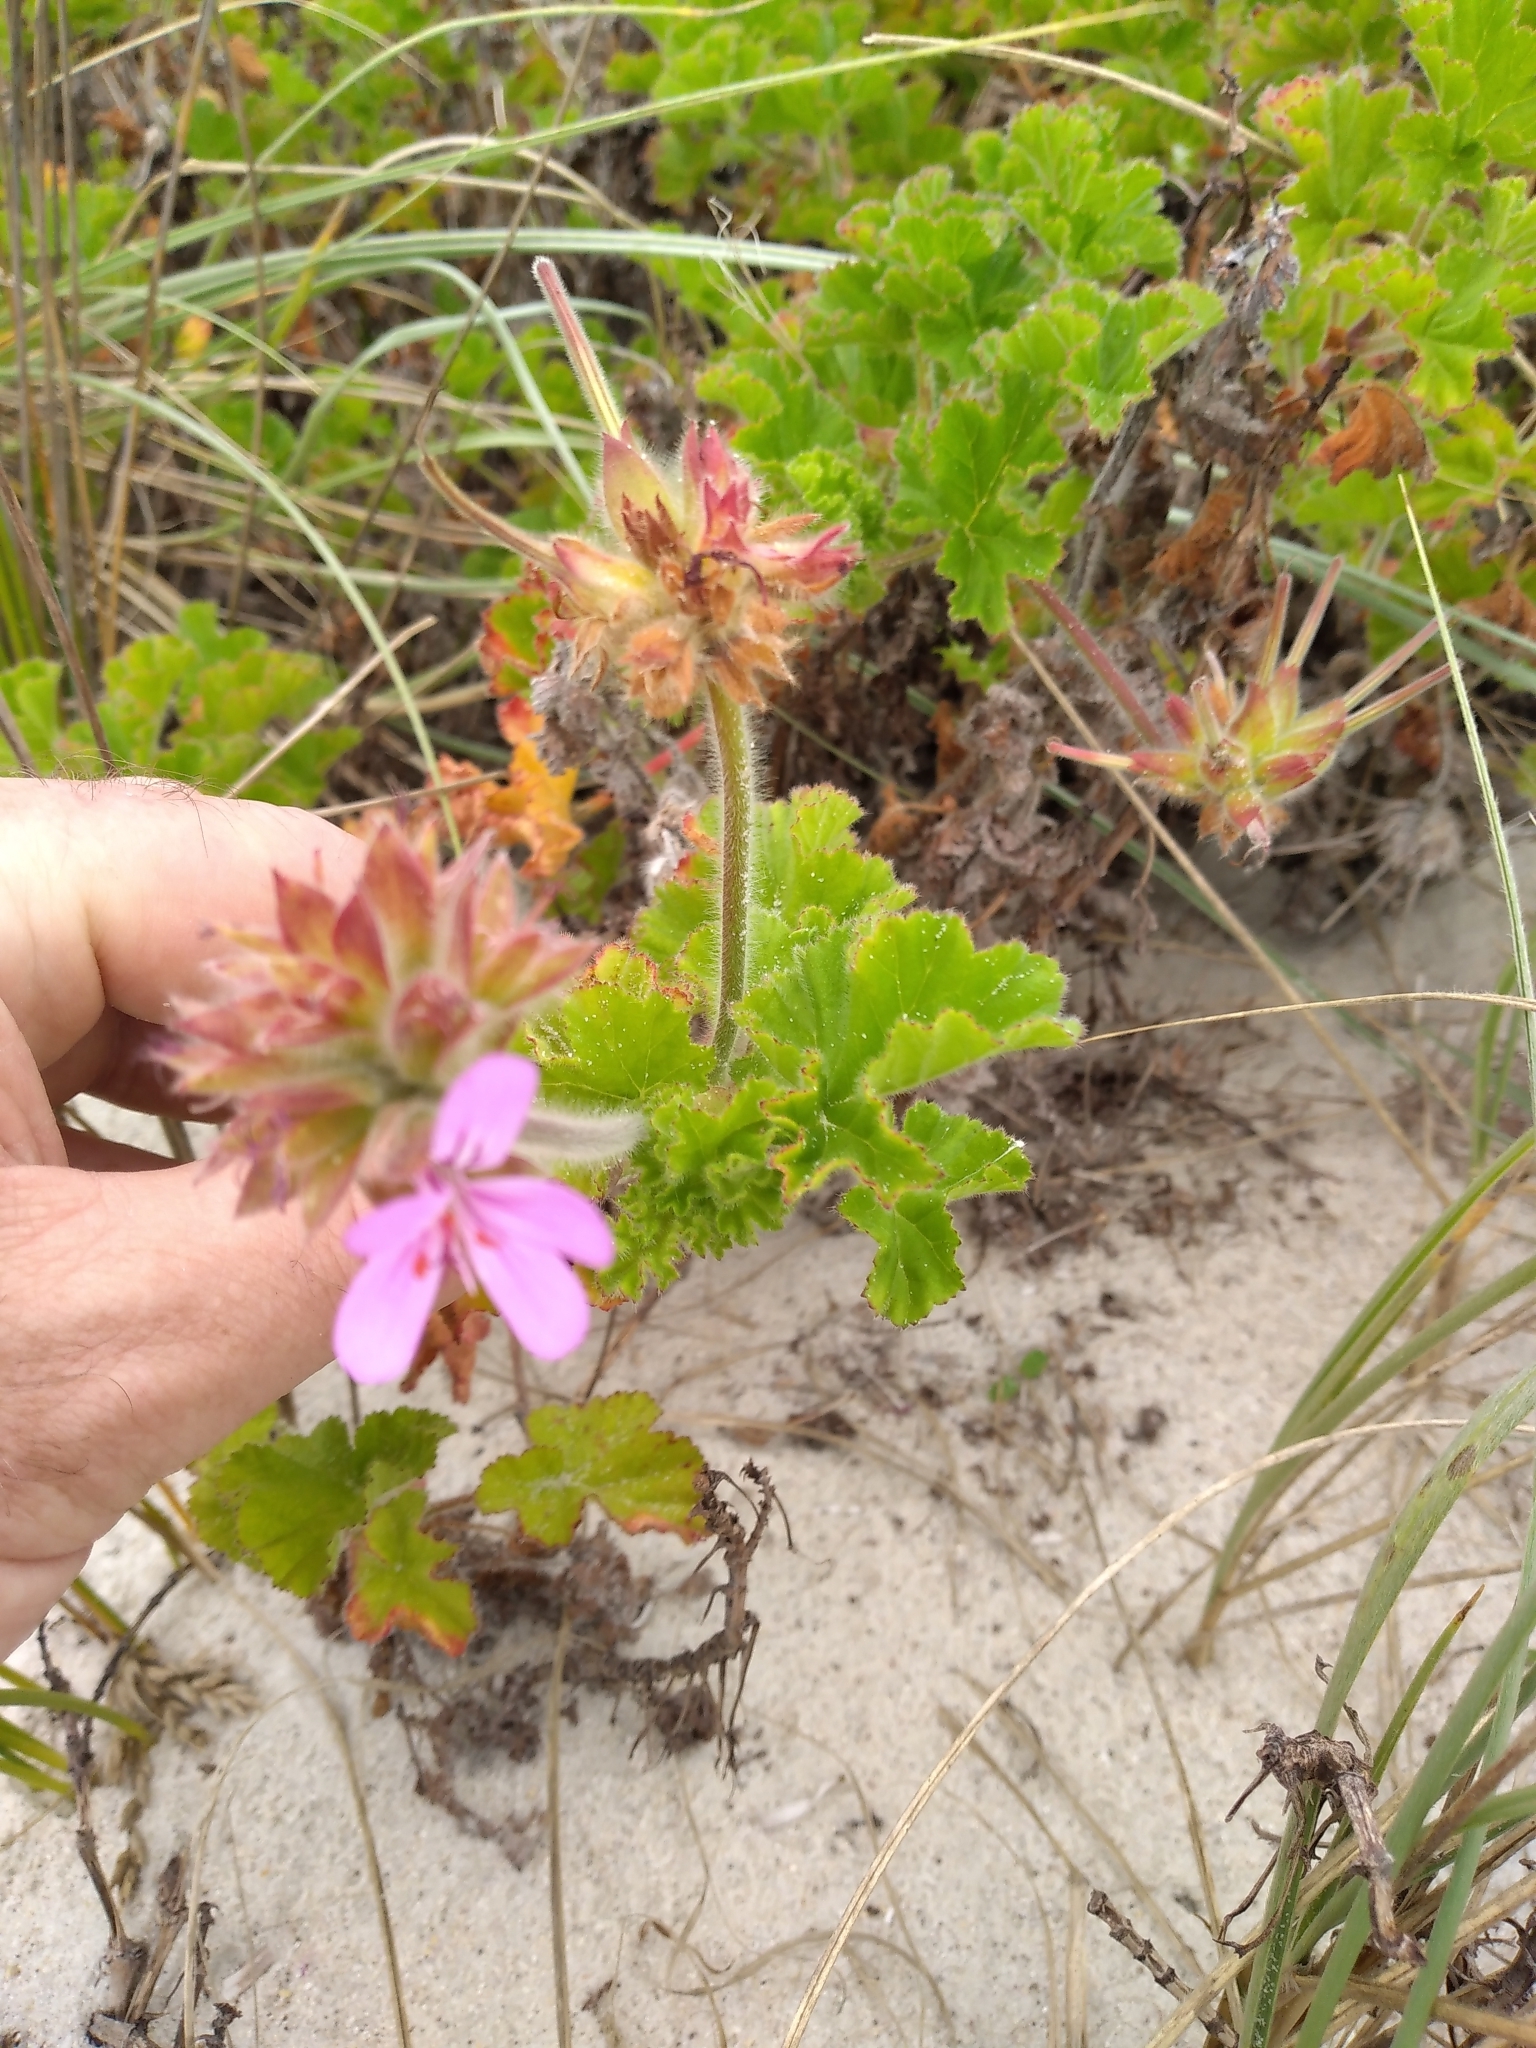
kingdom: Plantae
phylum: Tracheophyta
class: Magnoliopsida
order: Geraniales
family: Geraniaceae
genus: Pelargonium
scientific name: Pelargonium capitatum
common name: Rose scented geranium
